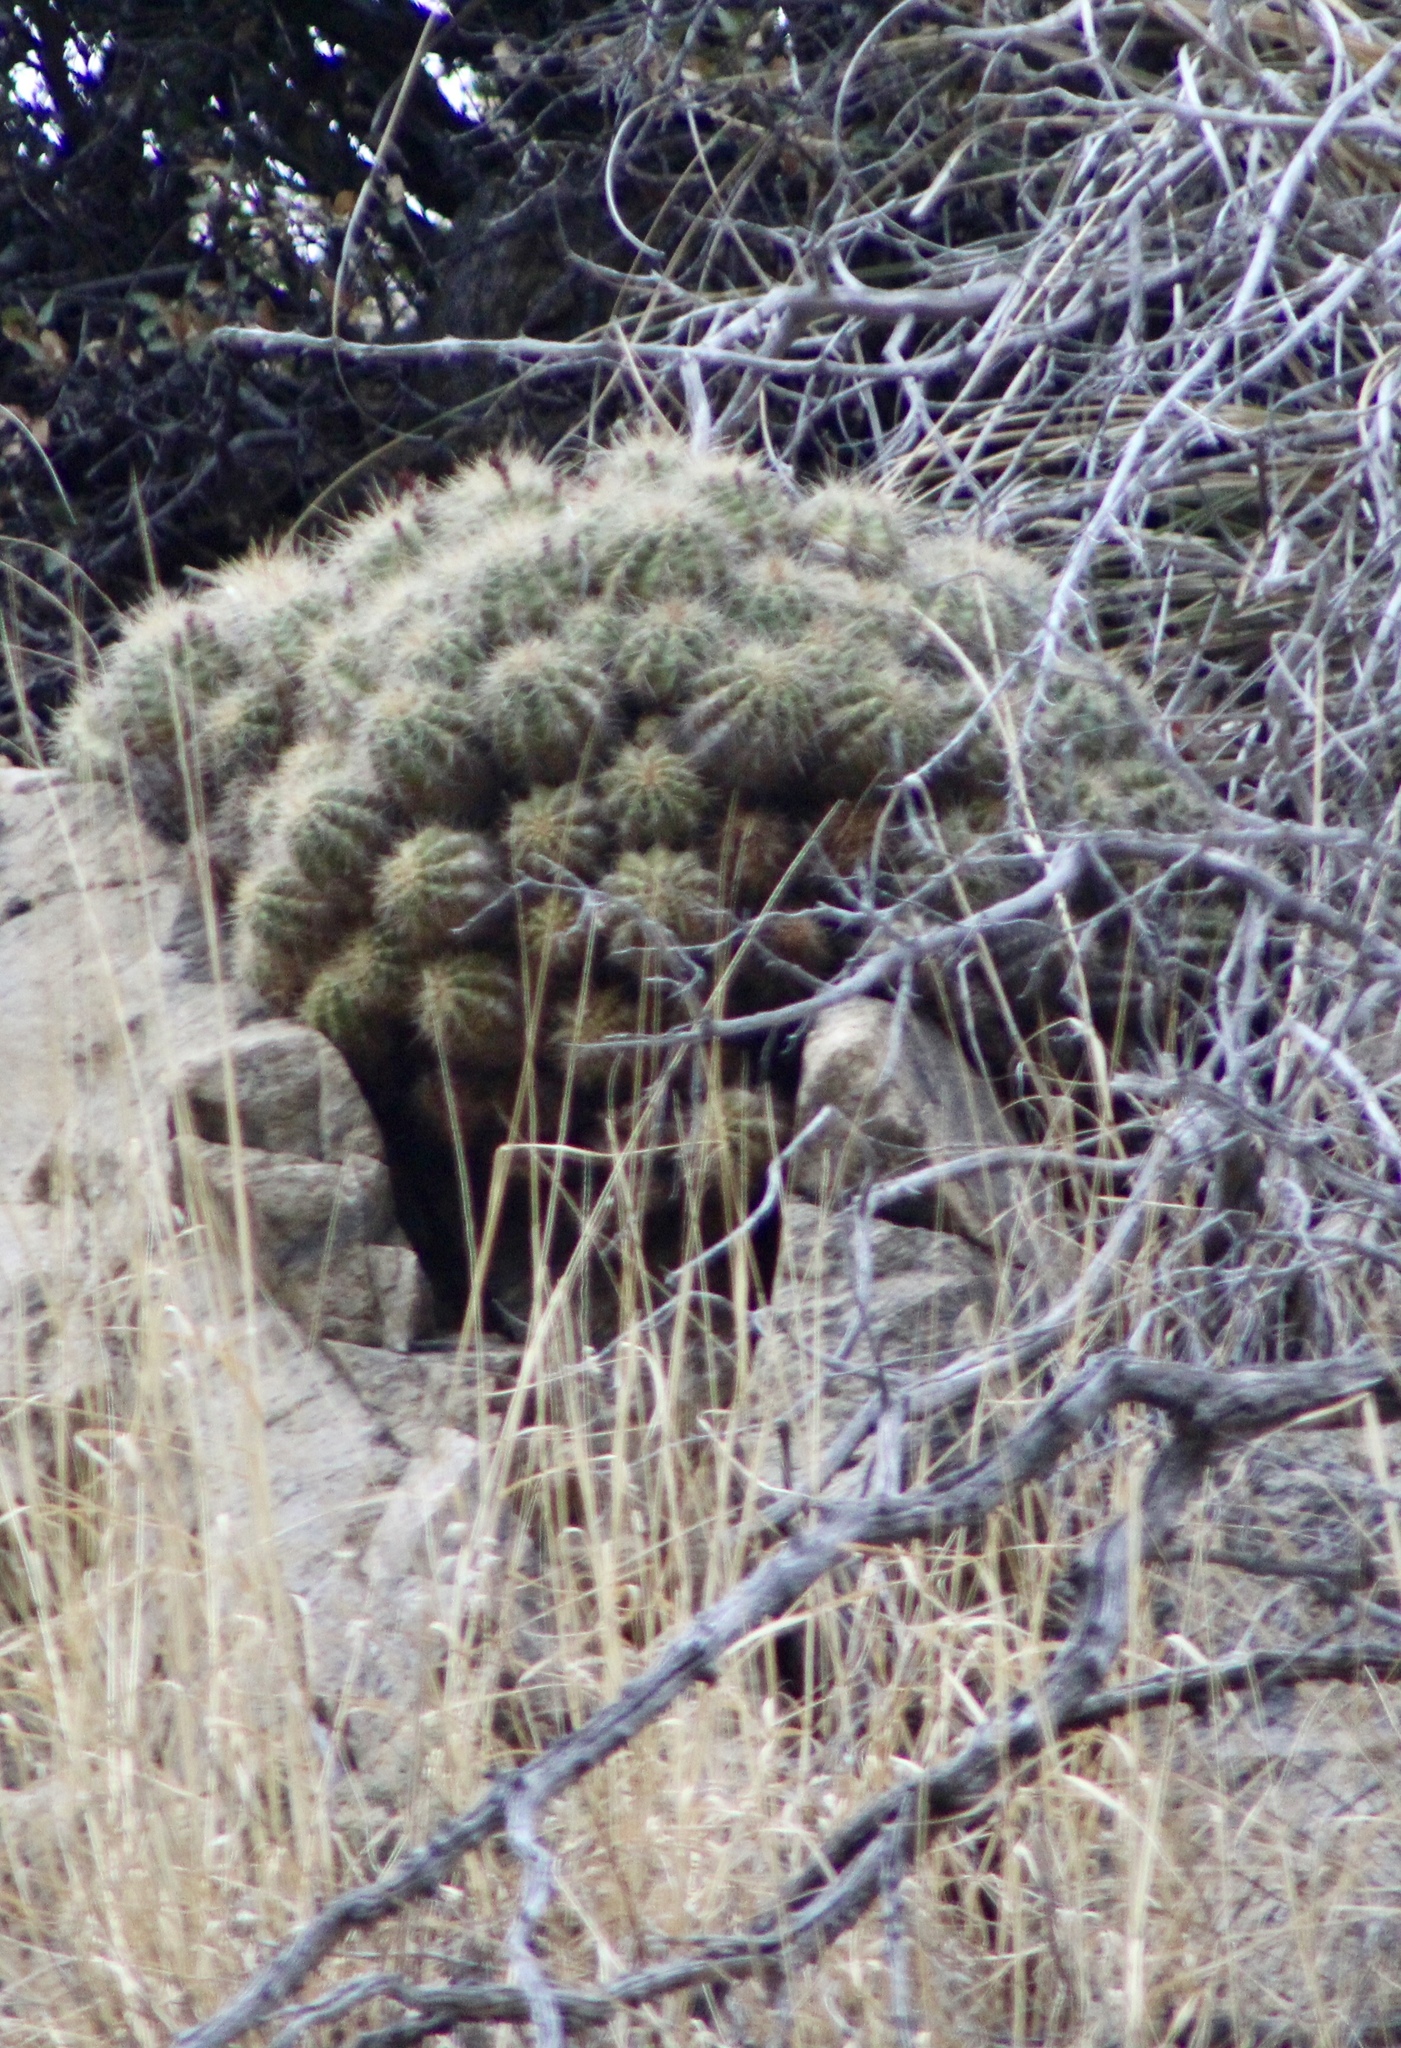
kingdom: Plantae
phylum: Tracheophyta
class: Magnoliopsida
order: Caryophyllales
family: Cactaceae
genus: Echinocereus
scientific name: Echinocereus bakeri
